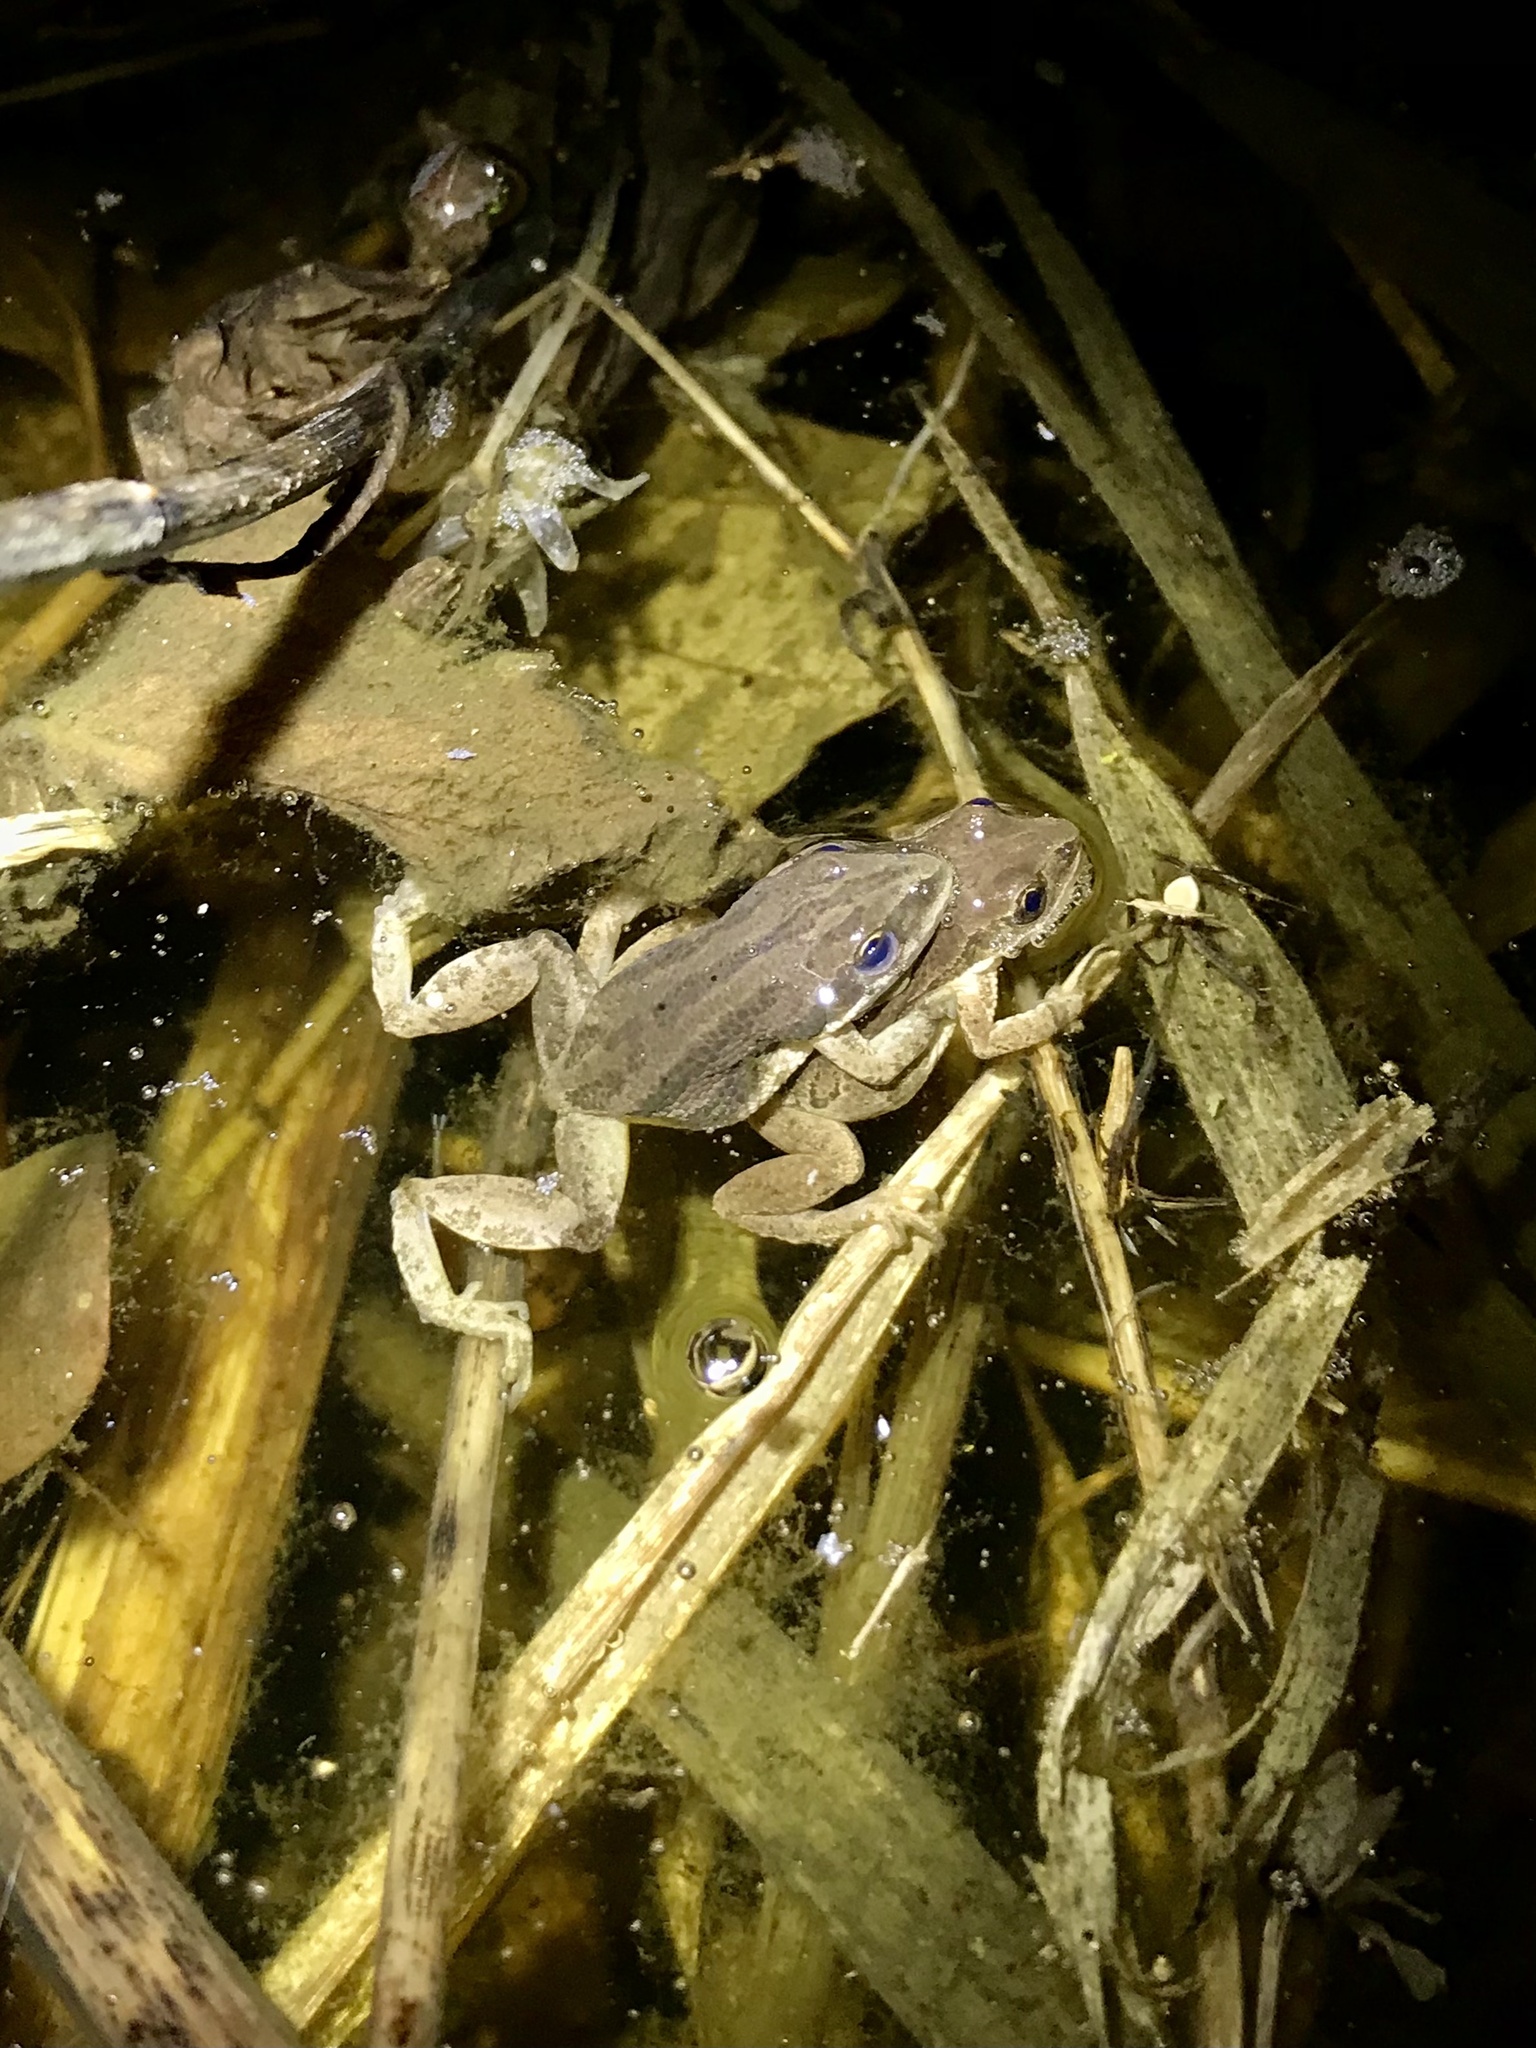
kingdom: Animalia
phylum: Chordata
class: Amphibia
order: Anura
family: Hylidae
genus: Pseudacris
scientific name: Pseudacris maculata
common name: Boreal chorus frog
